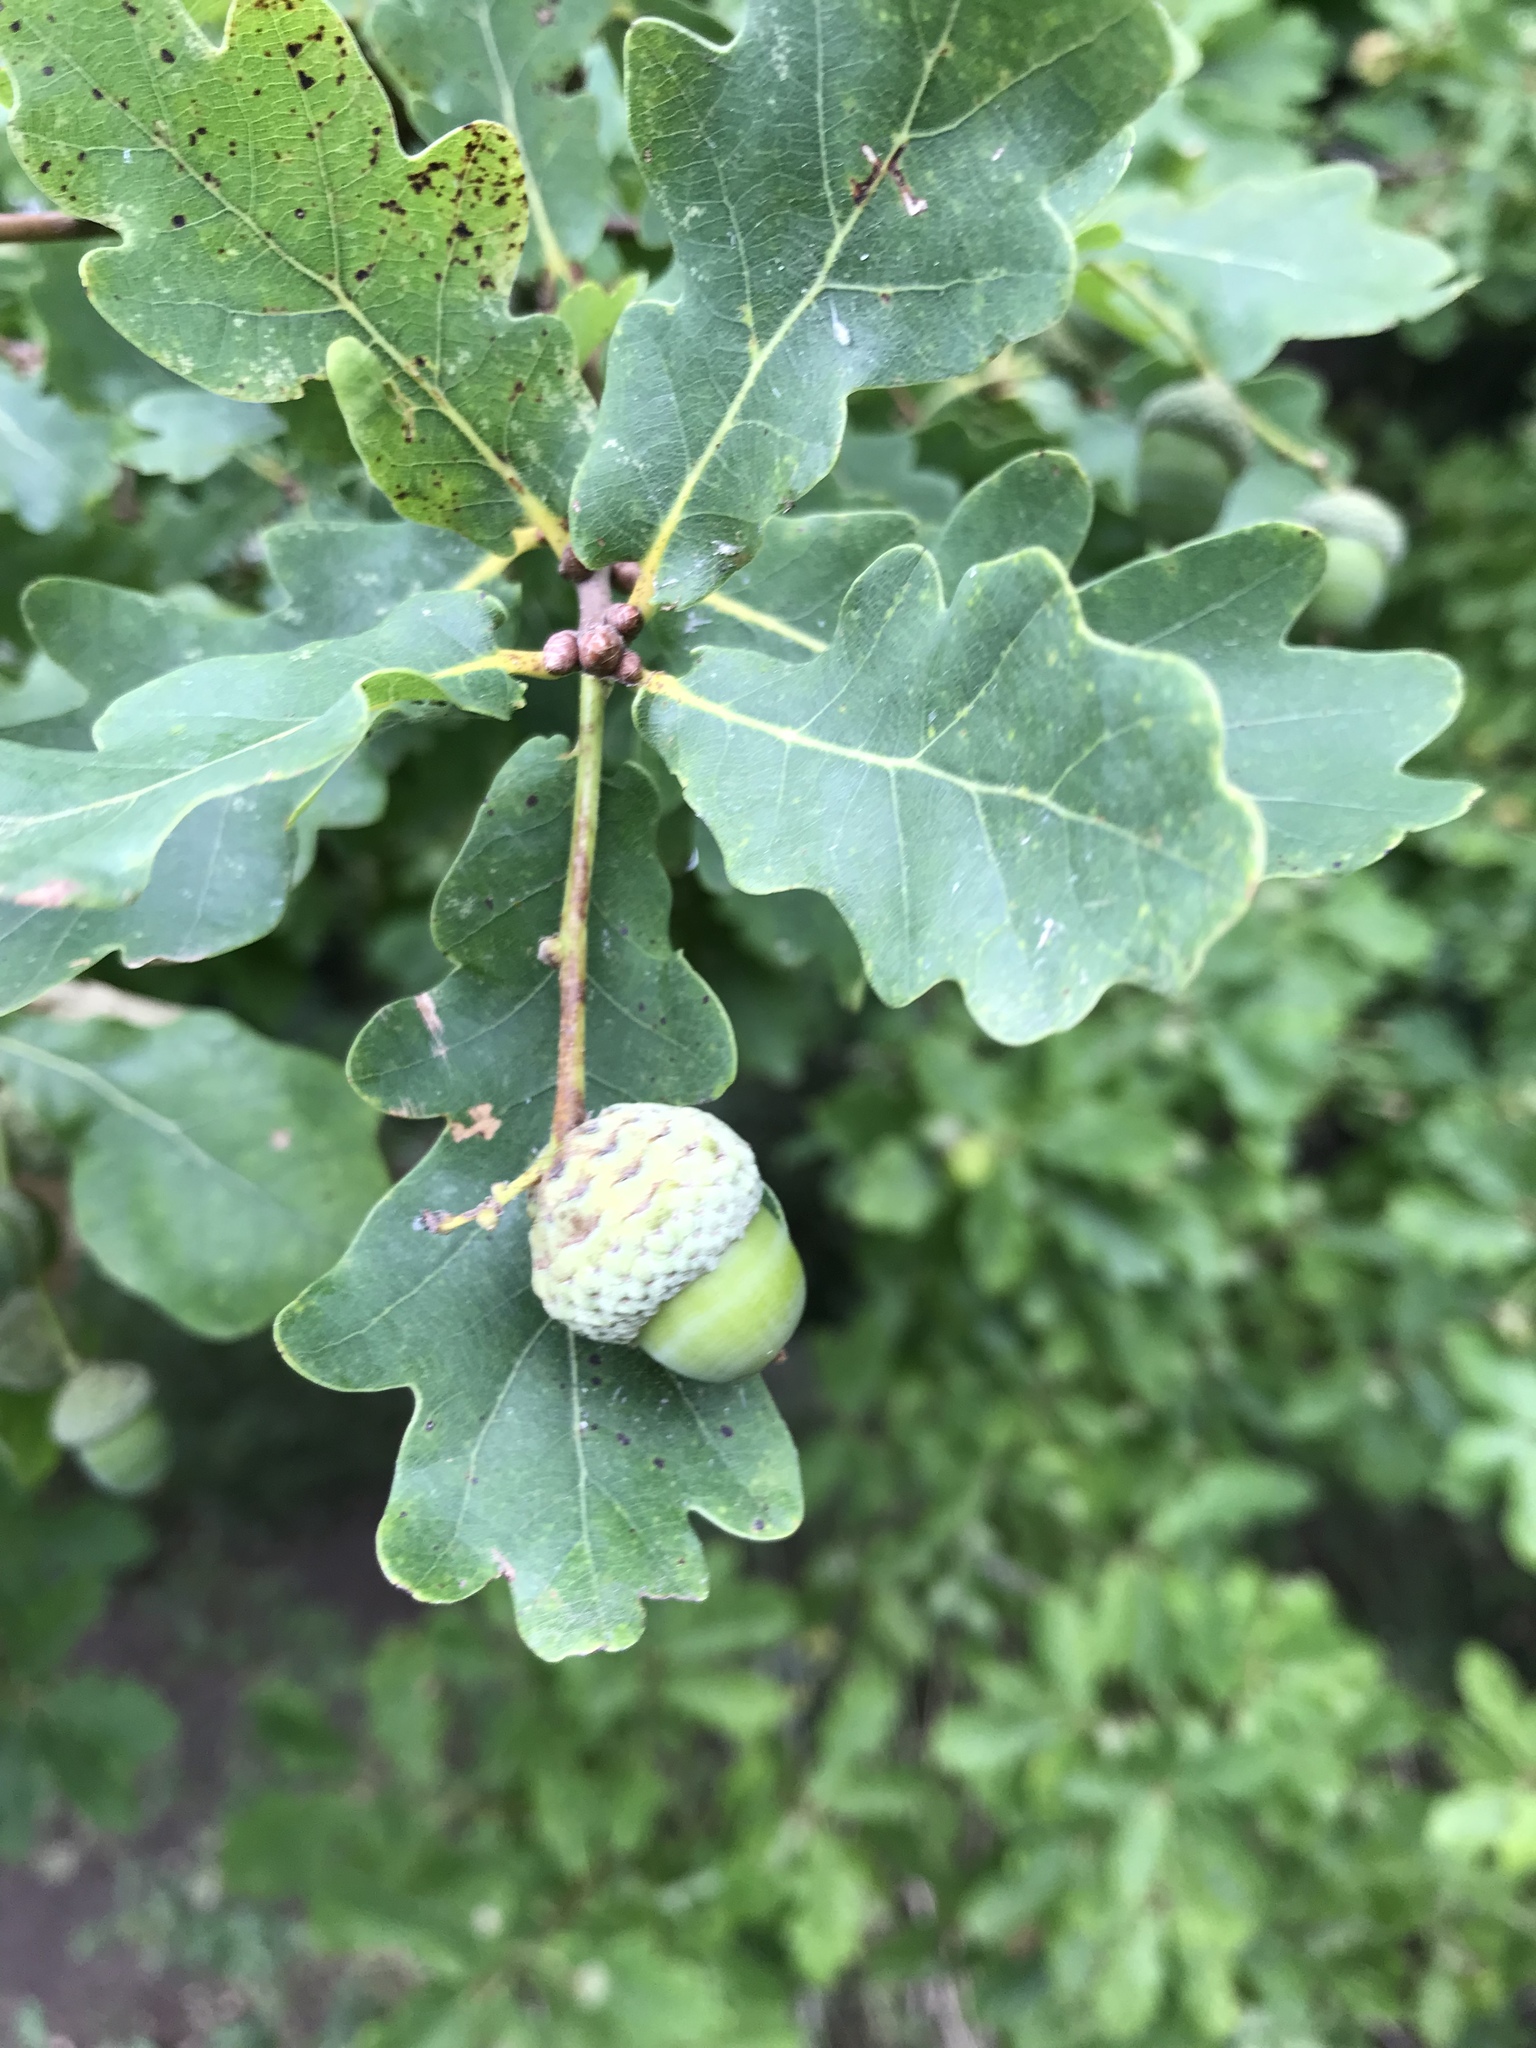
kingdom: Plantae
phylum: Tracheophyta
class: Magnoliopsida
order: Fagales
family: Fagaceae
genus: Quercus
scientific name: Quercus robur
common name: Pedunculate oak
